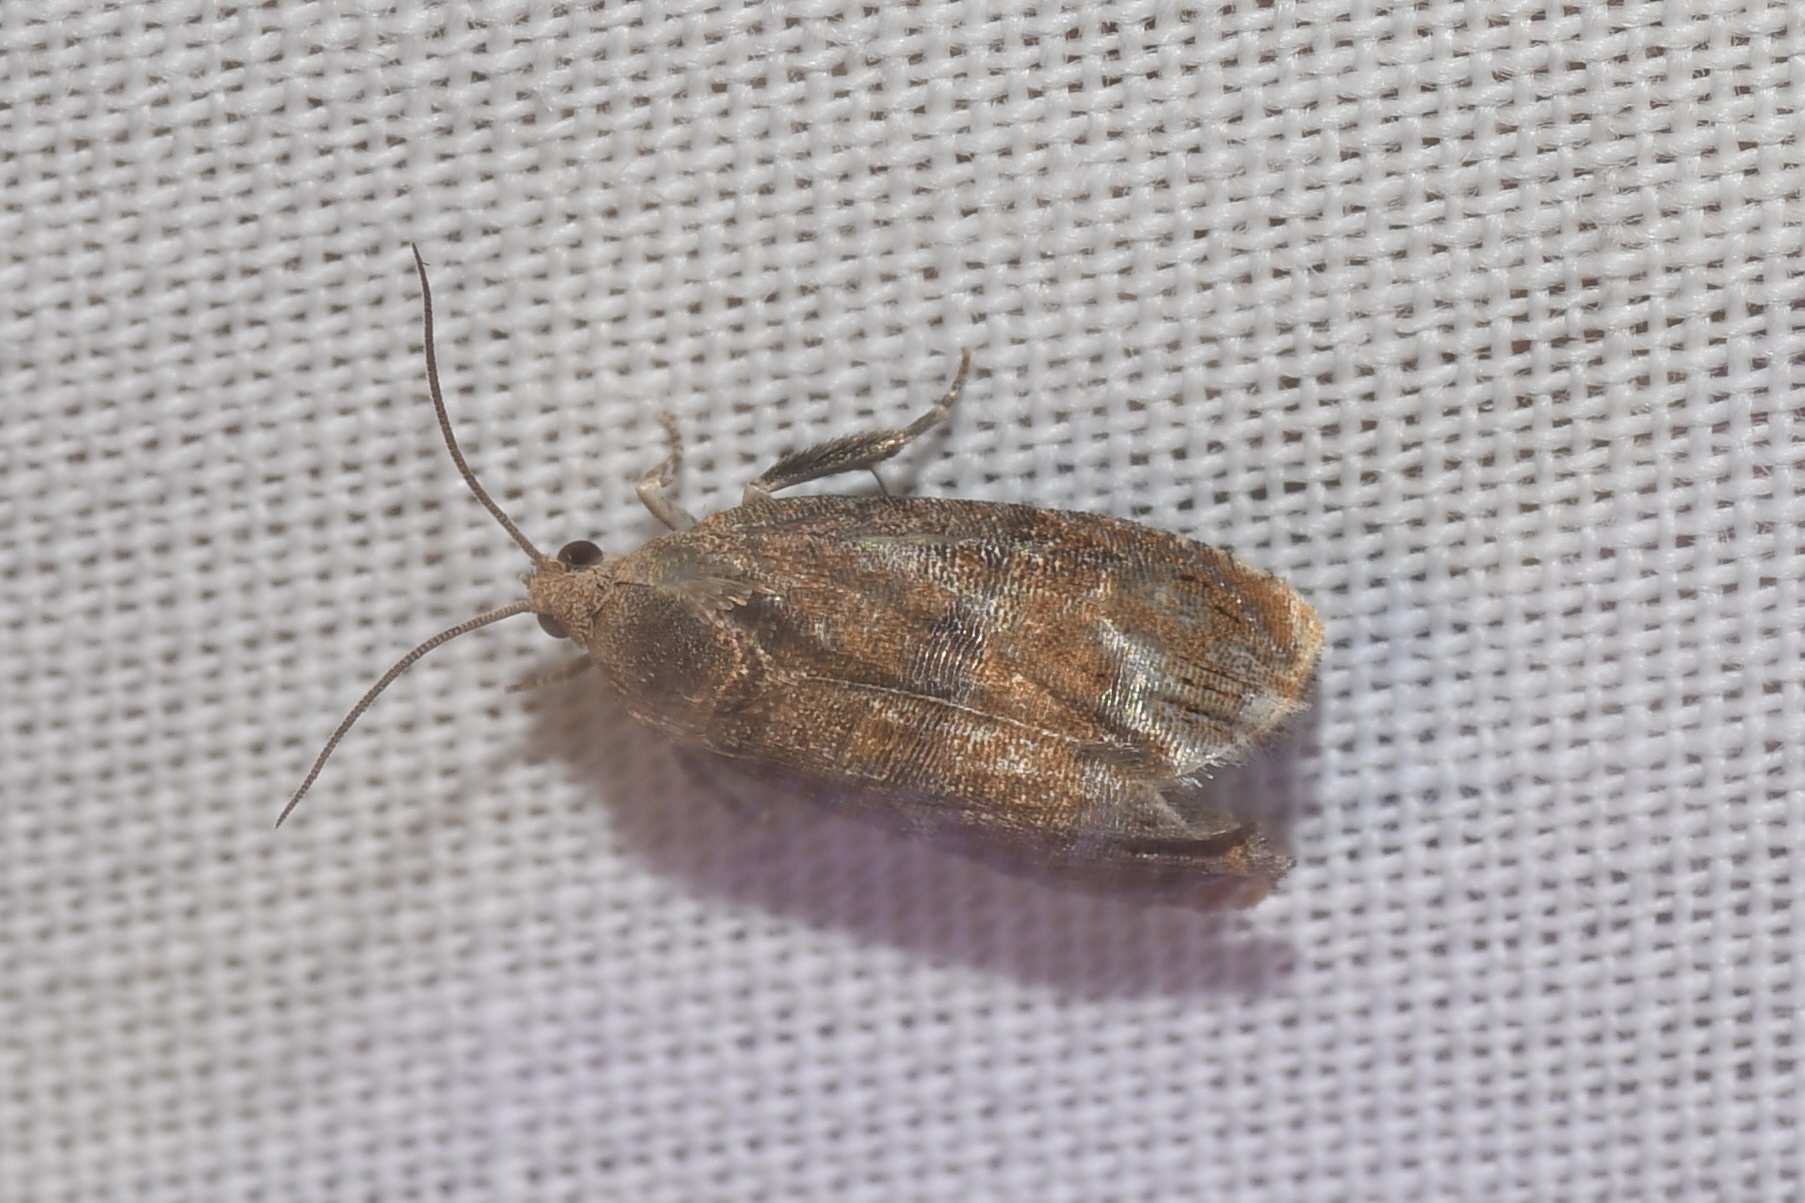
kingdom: Animalia
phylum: Arthropoda
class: Insecta
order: Lepidoptera
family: Tortricidae
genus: Cydia
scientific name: Cydia latiferreana
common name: Filbertworm moth
